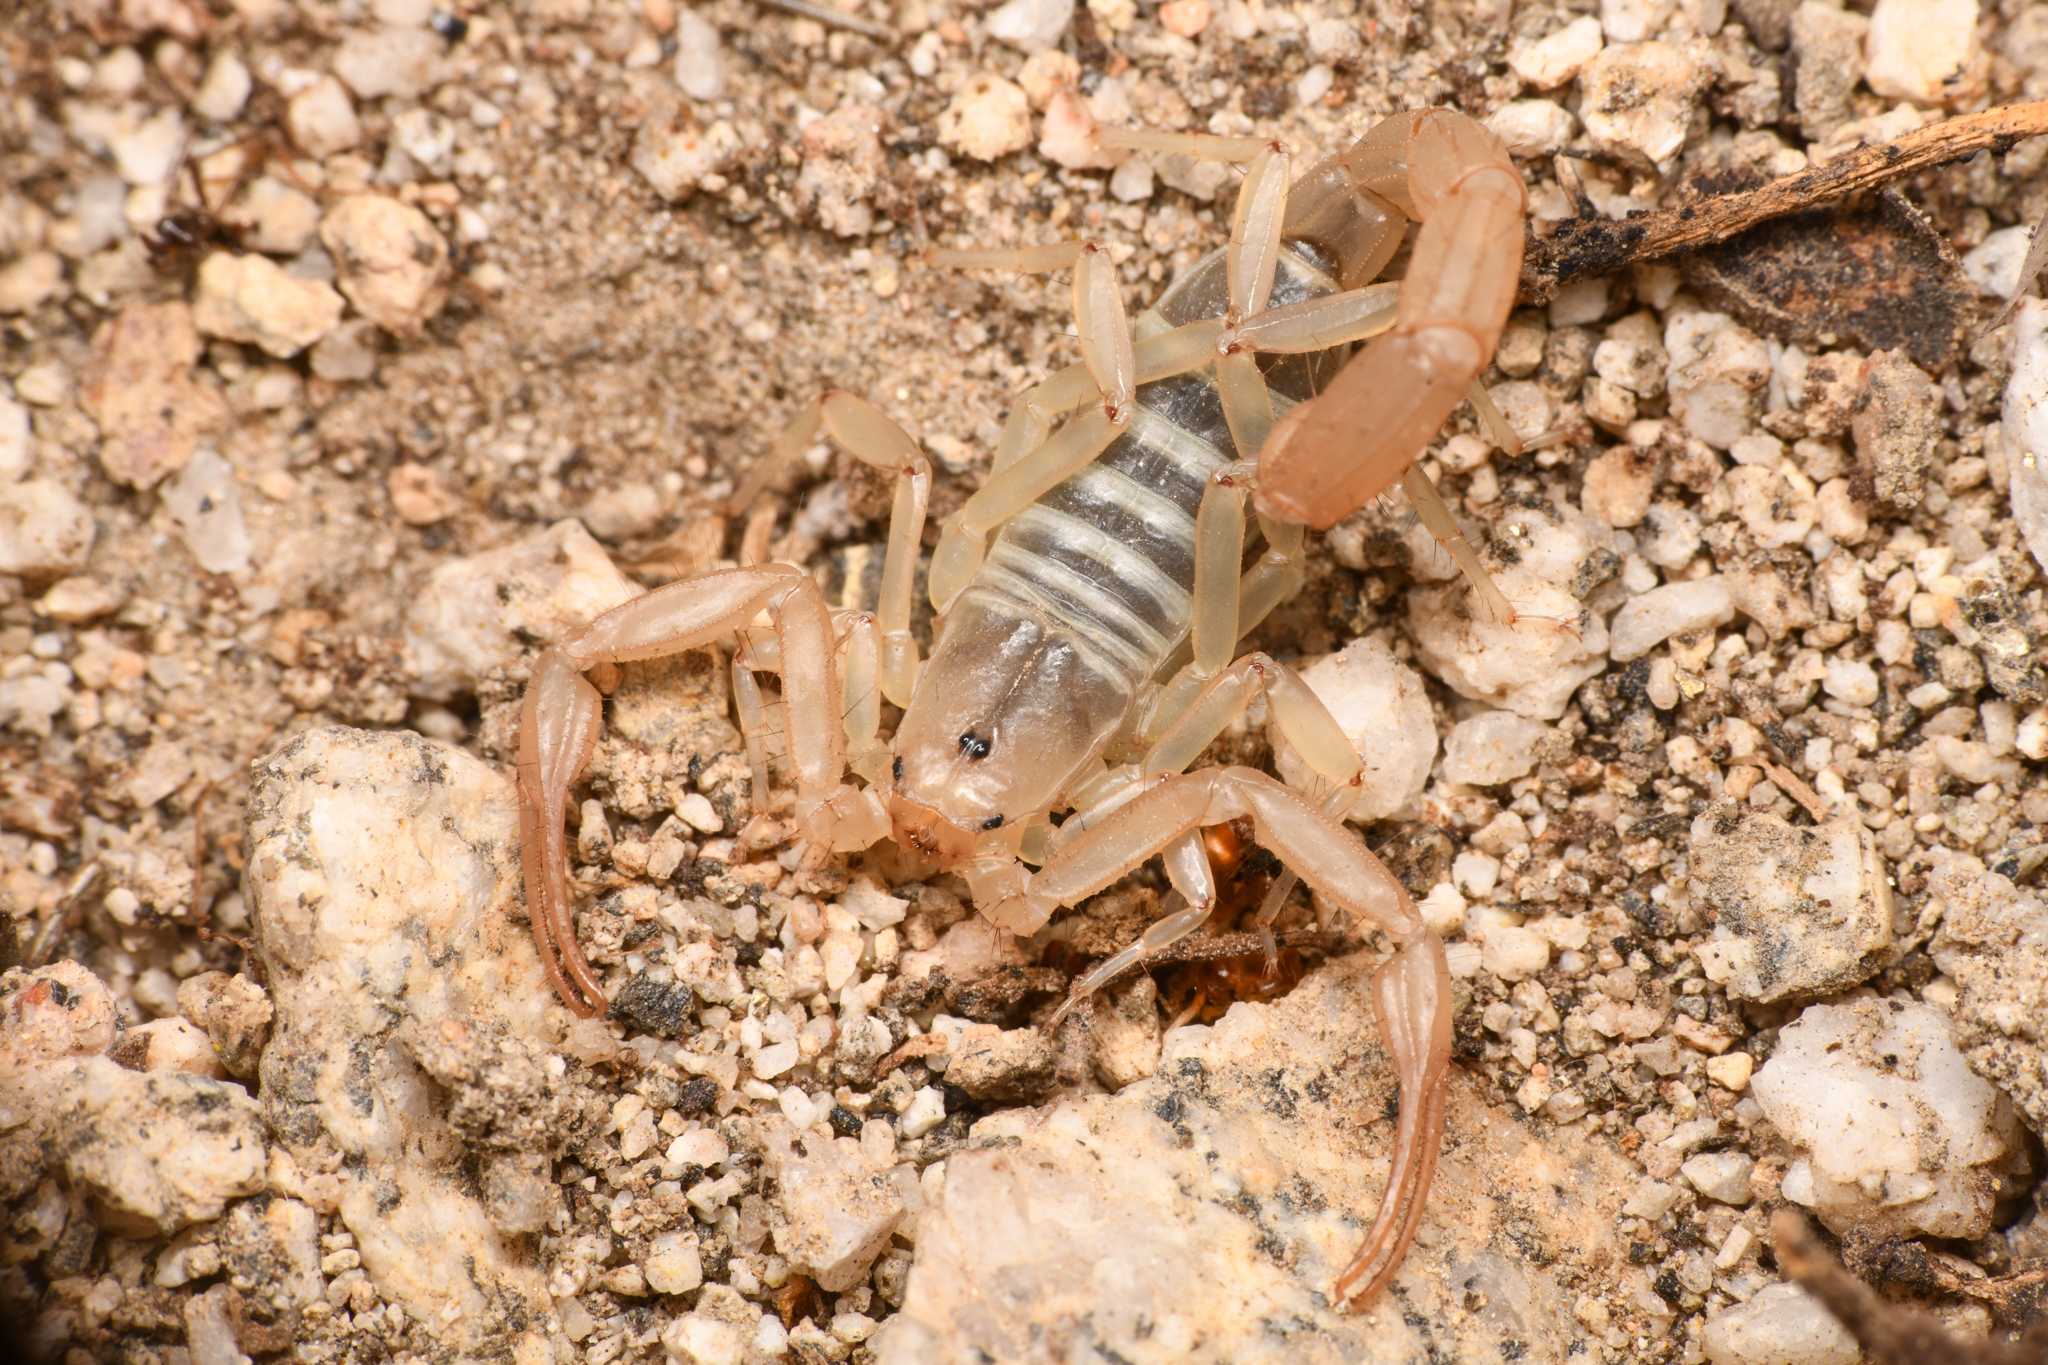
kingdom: Animalia
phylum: Arthropoda
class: Arachnida
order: Scorpiones
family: Vaejovidae
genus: Stahnkeus
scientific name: Stahnkeus subtilimanus
